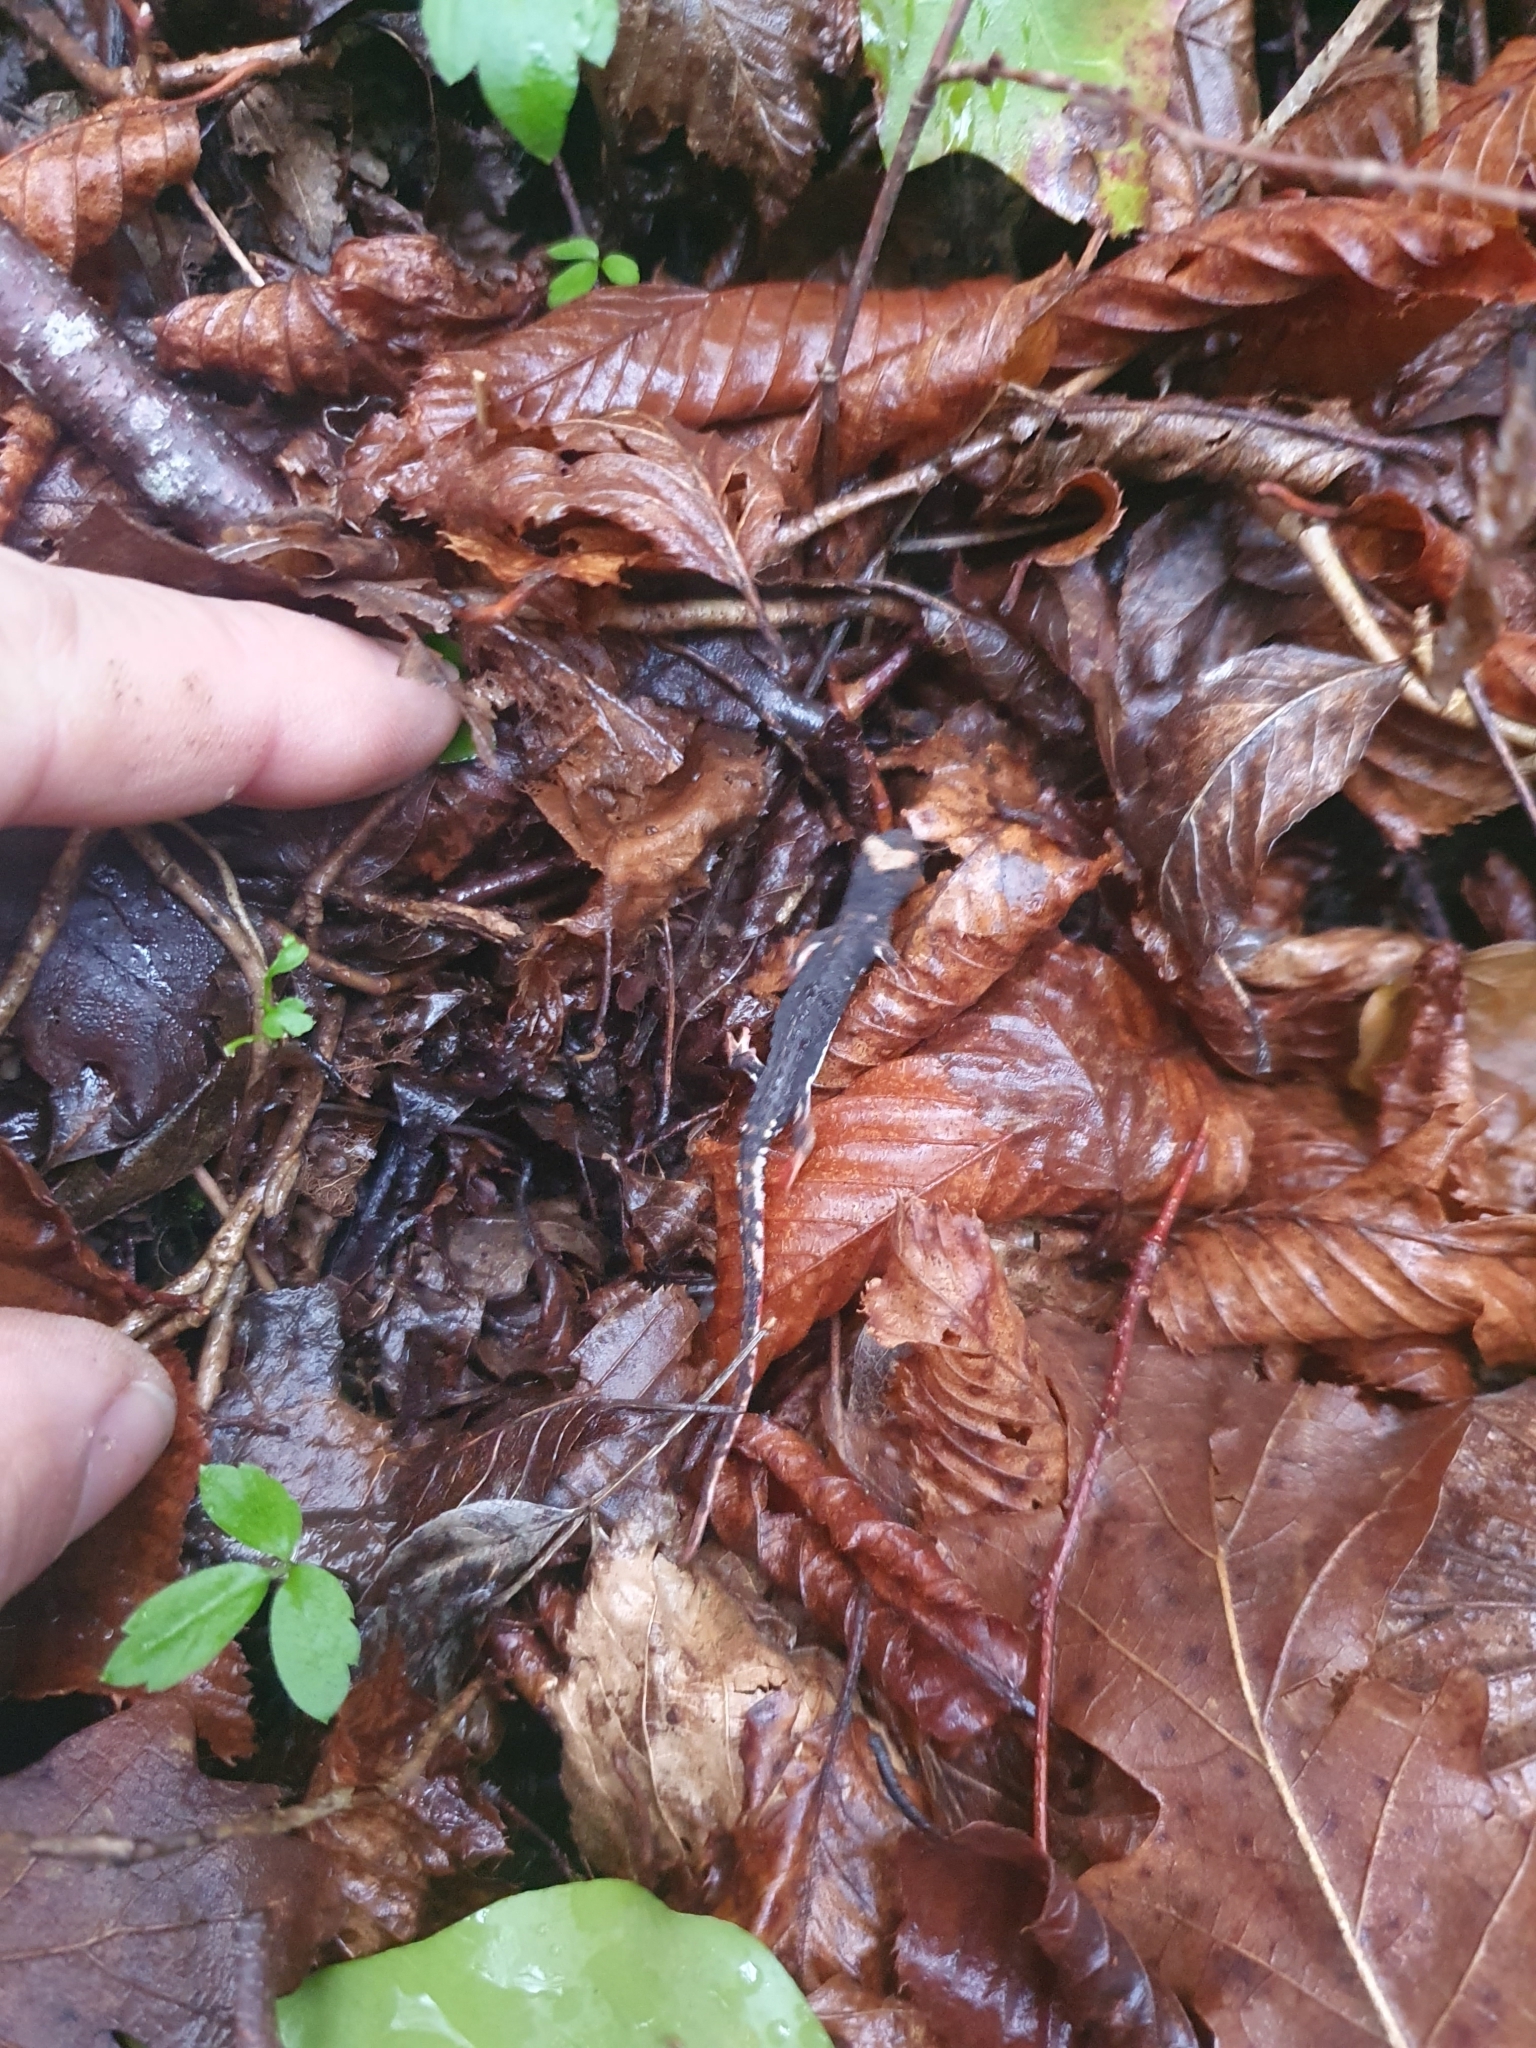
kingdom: Animalia
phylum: Chordata
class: Amphibia
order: Caudata
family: Salamandridae
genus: Salamandrina
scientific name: Salamandrina terdigitata
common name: Southern spectacled salamander
